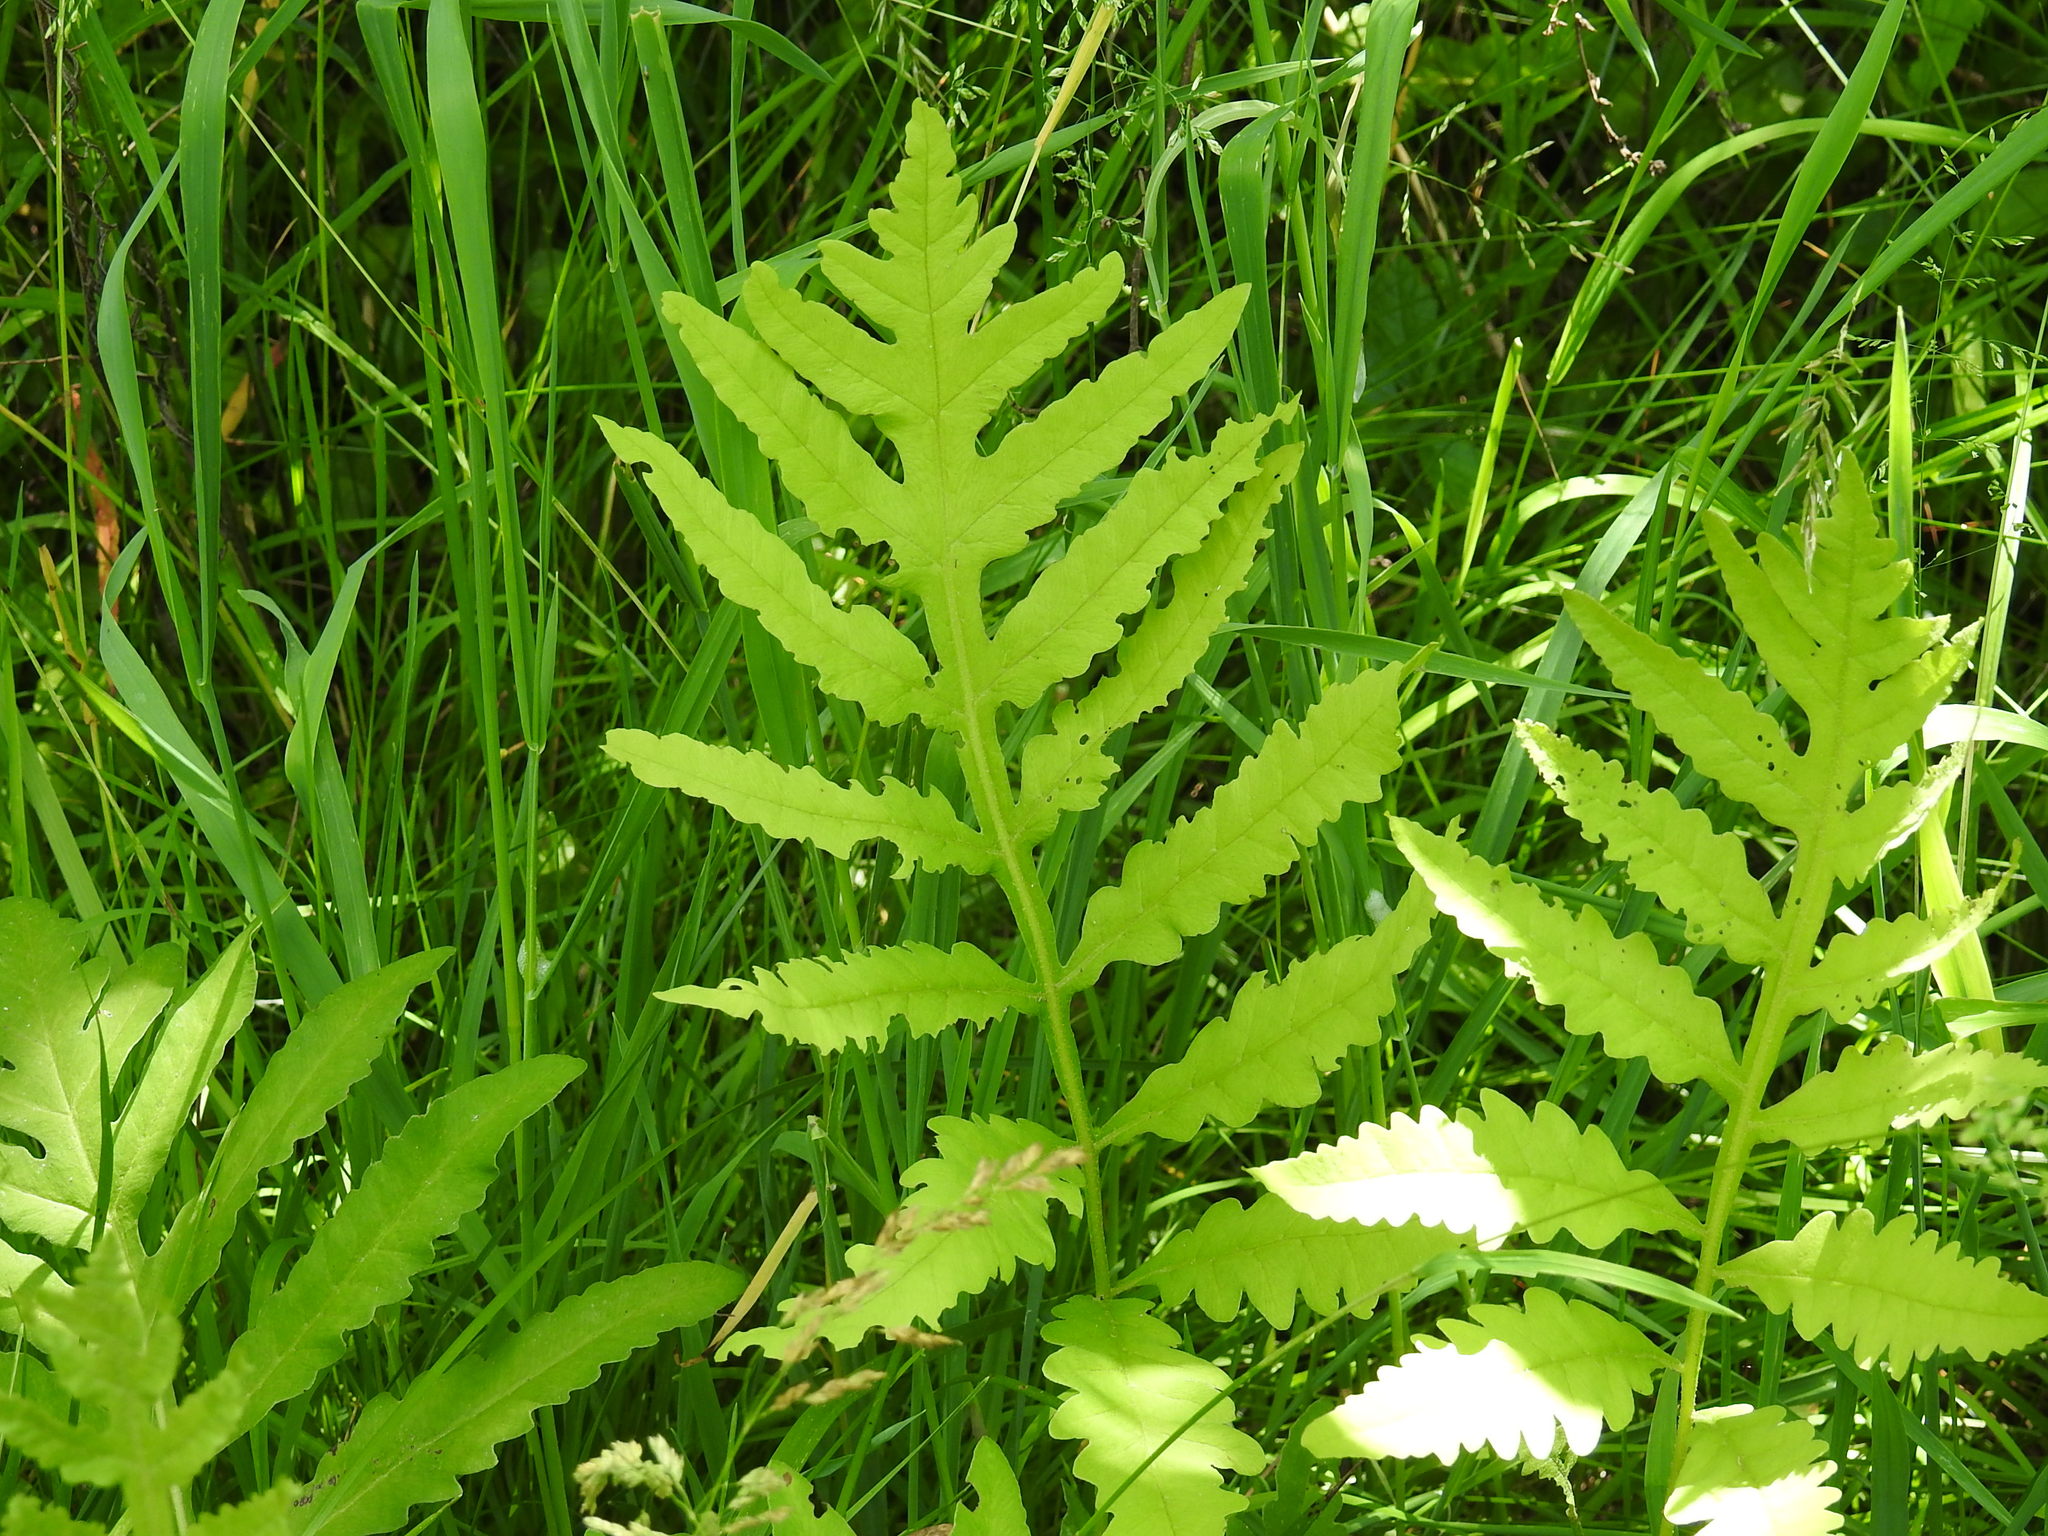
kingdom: Plantae
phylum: Tracheophyta
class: Polypodiopsida
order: Polypodiales
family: Onocleaceae
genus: Onoclea
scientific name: Onoclea sensibilis
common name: Sensitive fern
